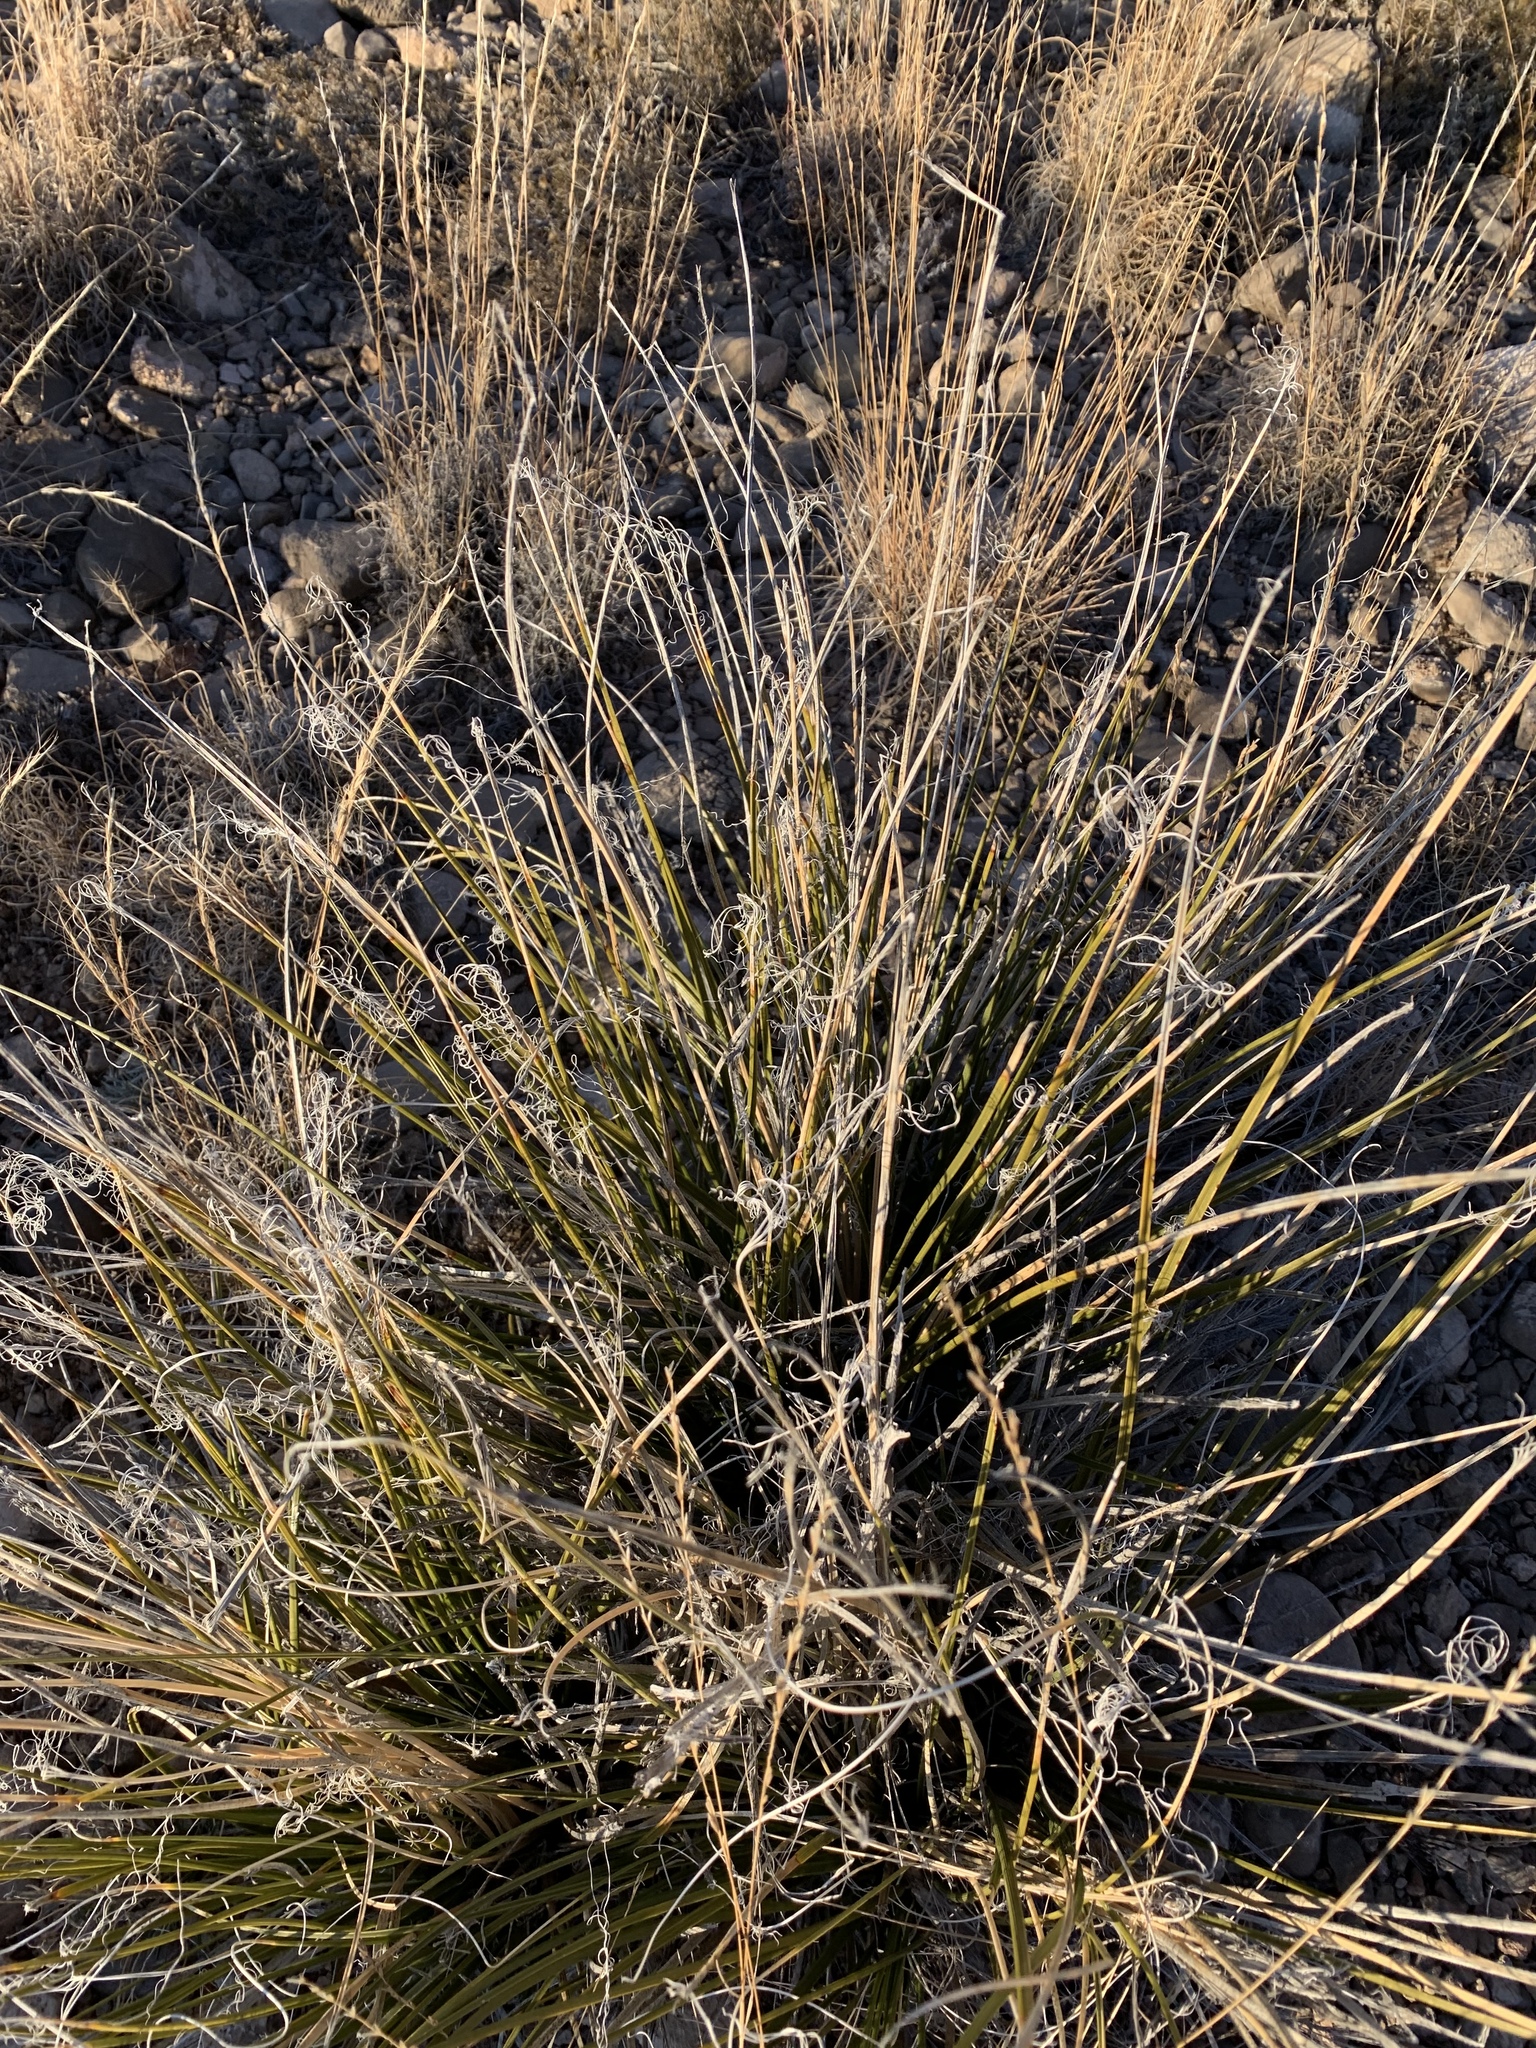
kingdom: Plantae
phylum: Tracheophyta
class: Liliopsida
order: Asparagales
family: Asparagaceae
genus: Nolina
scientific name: Nolina texana
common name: Texas sacahuiste
